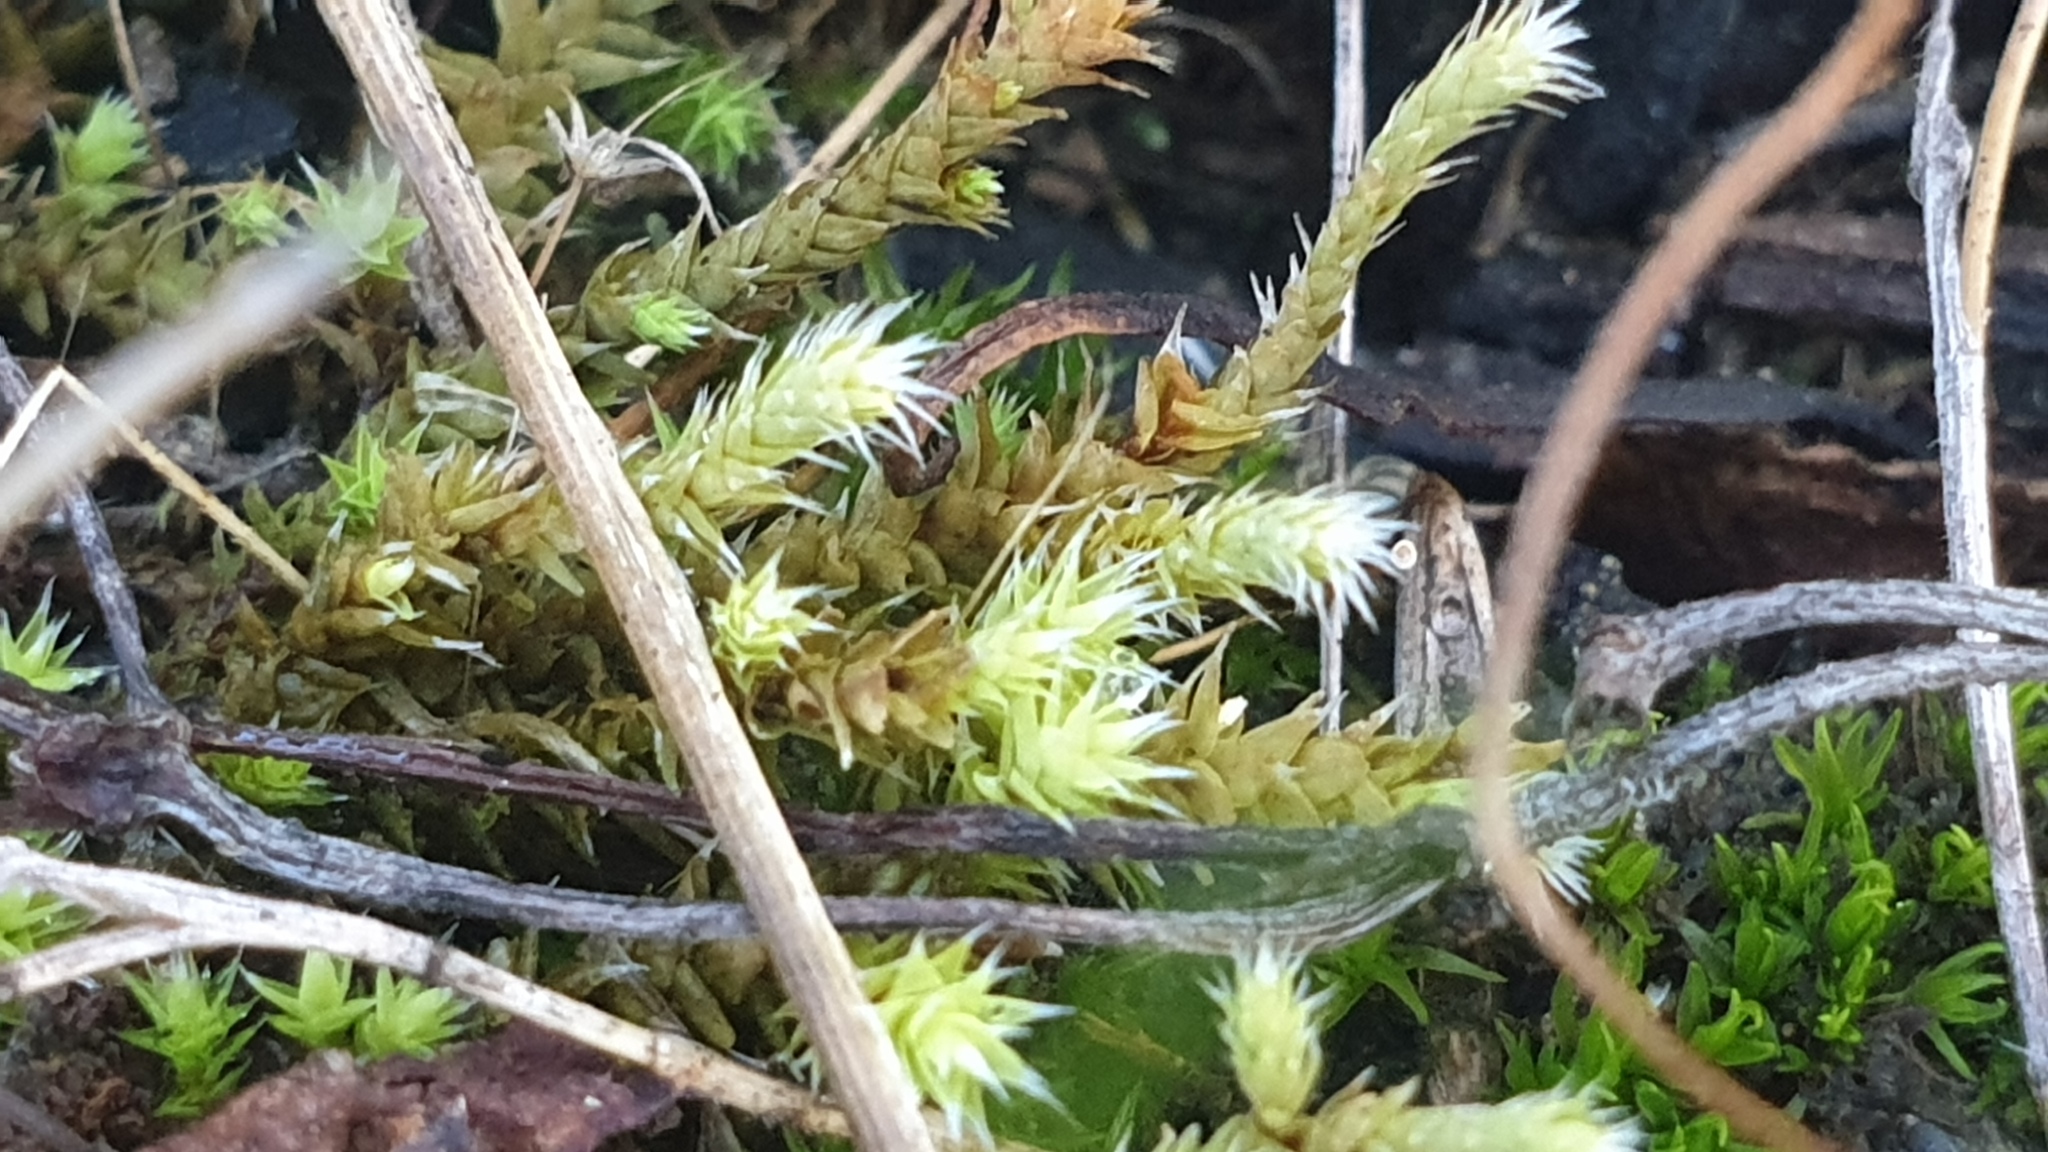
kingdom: Plantae
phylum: Bryophyta
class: Bryopsida
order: Hedwigiales
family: Hedwigiaceae
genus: Hedwigia
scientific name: Hedwigia ciliata
